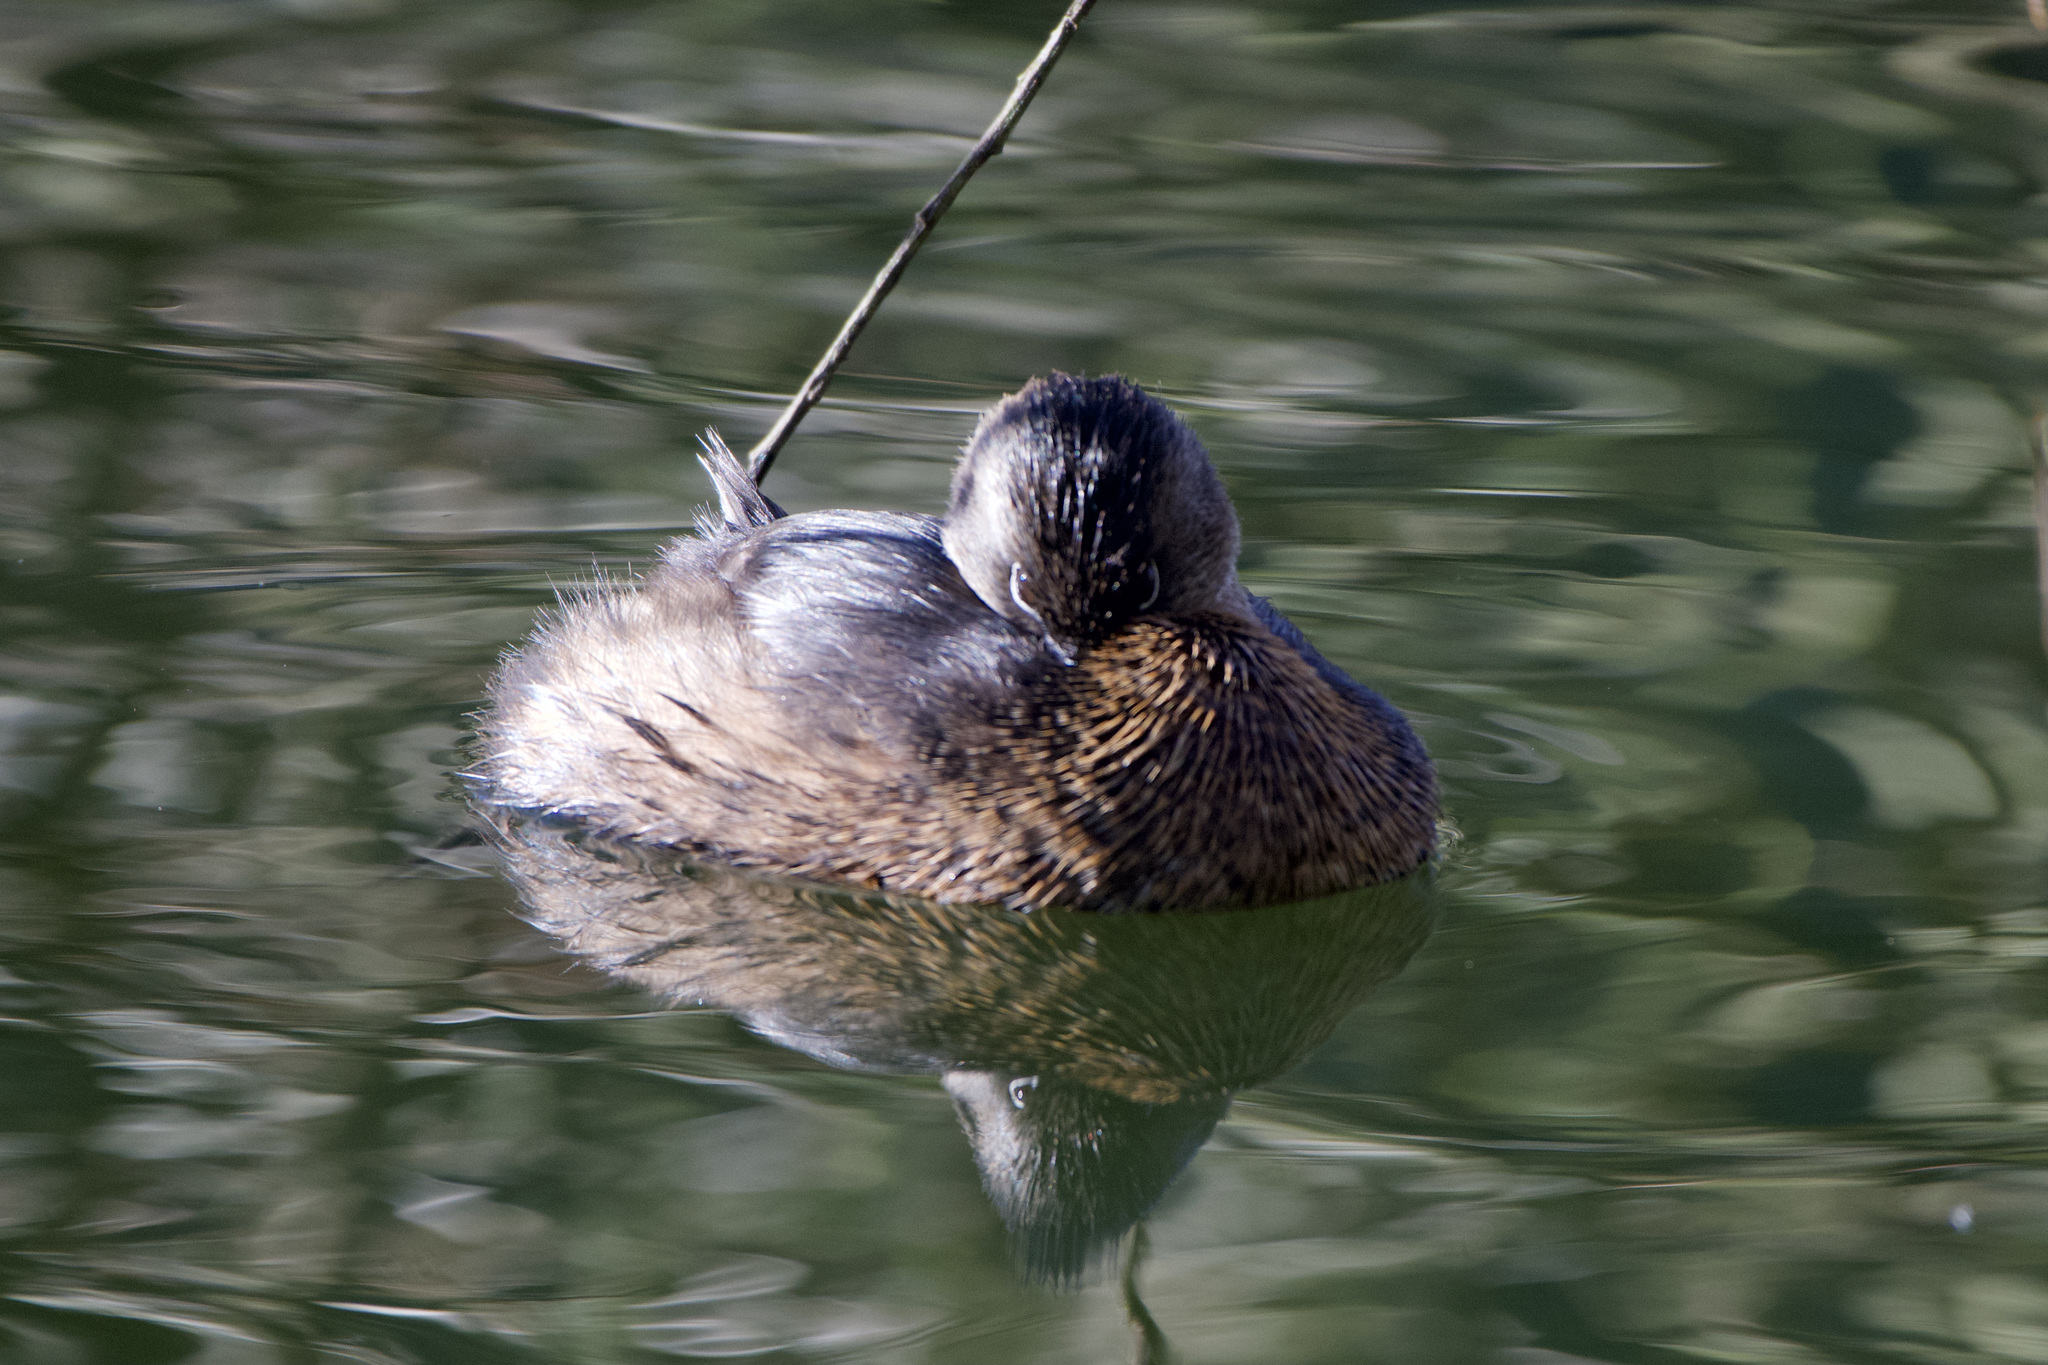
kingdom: Animalia
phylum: Chordata
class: Aves
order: Podicipediformes
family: Podicipedidae
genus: Podilymbus
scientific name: Podilymbus podiceps
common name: Pied-billed grebe
